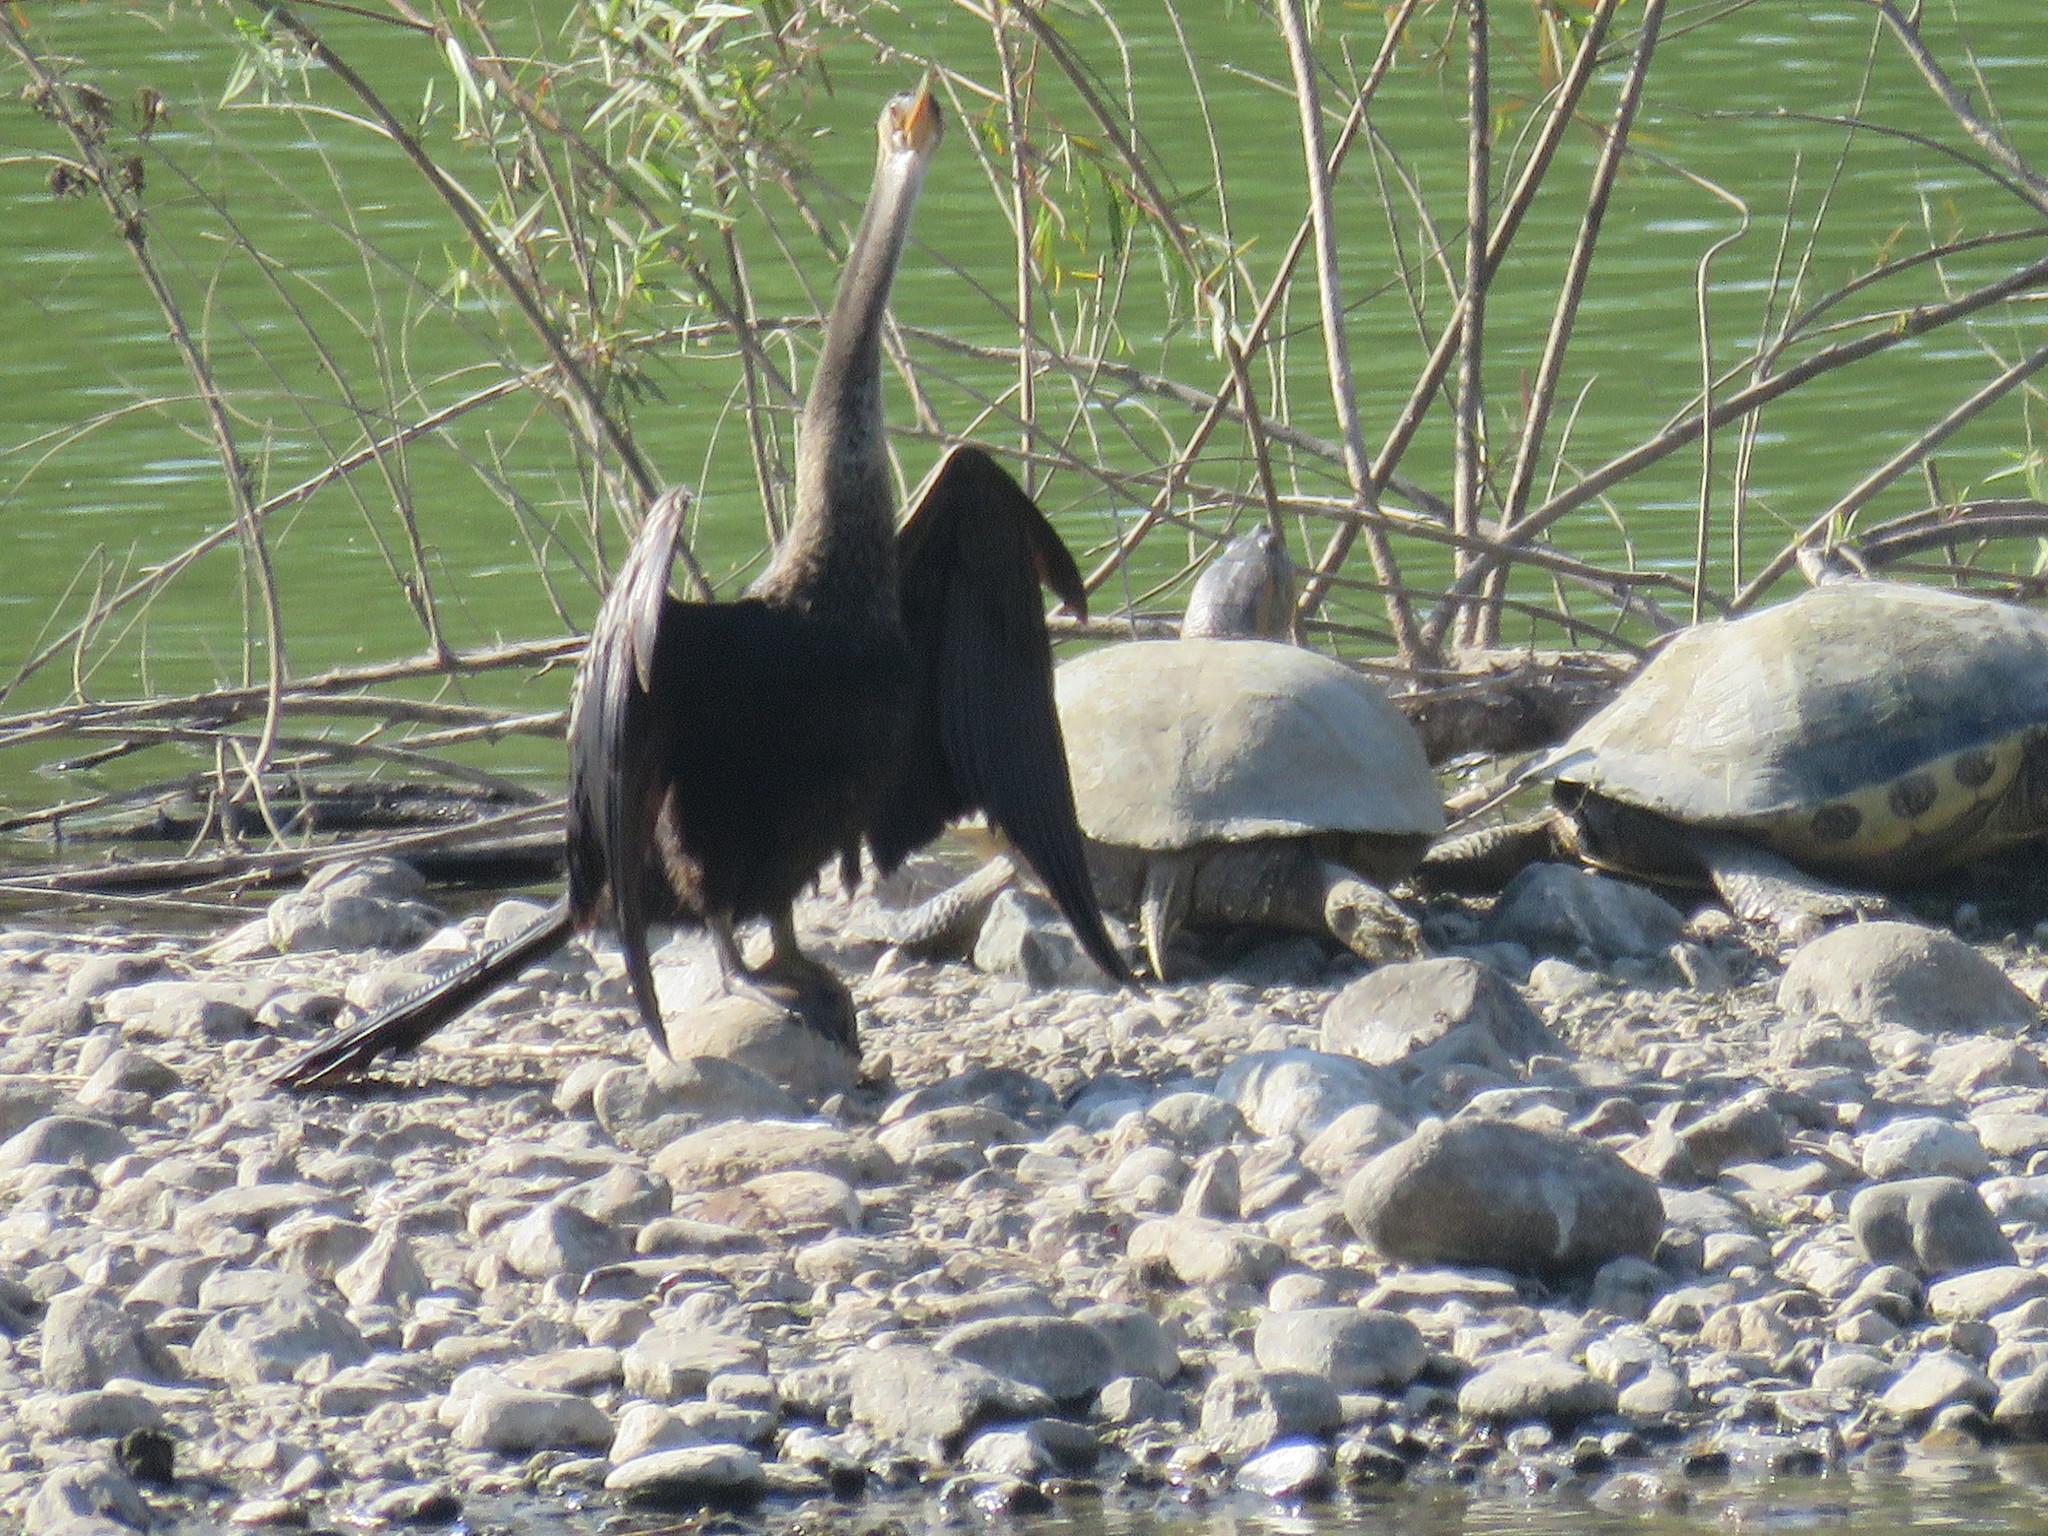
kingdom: Animalia
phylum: Chordata
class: Testudines
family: Emydidae
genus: Trachemys
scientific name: Trachemys ornata
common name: Ornate slider
